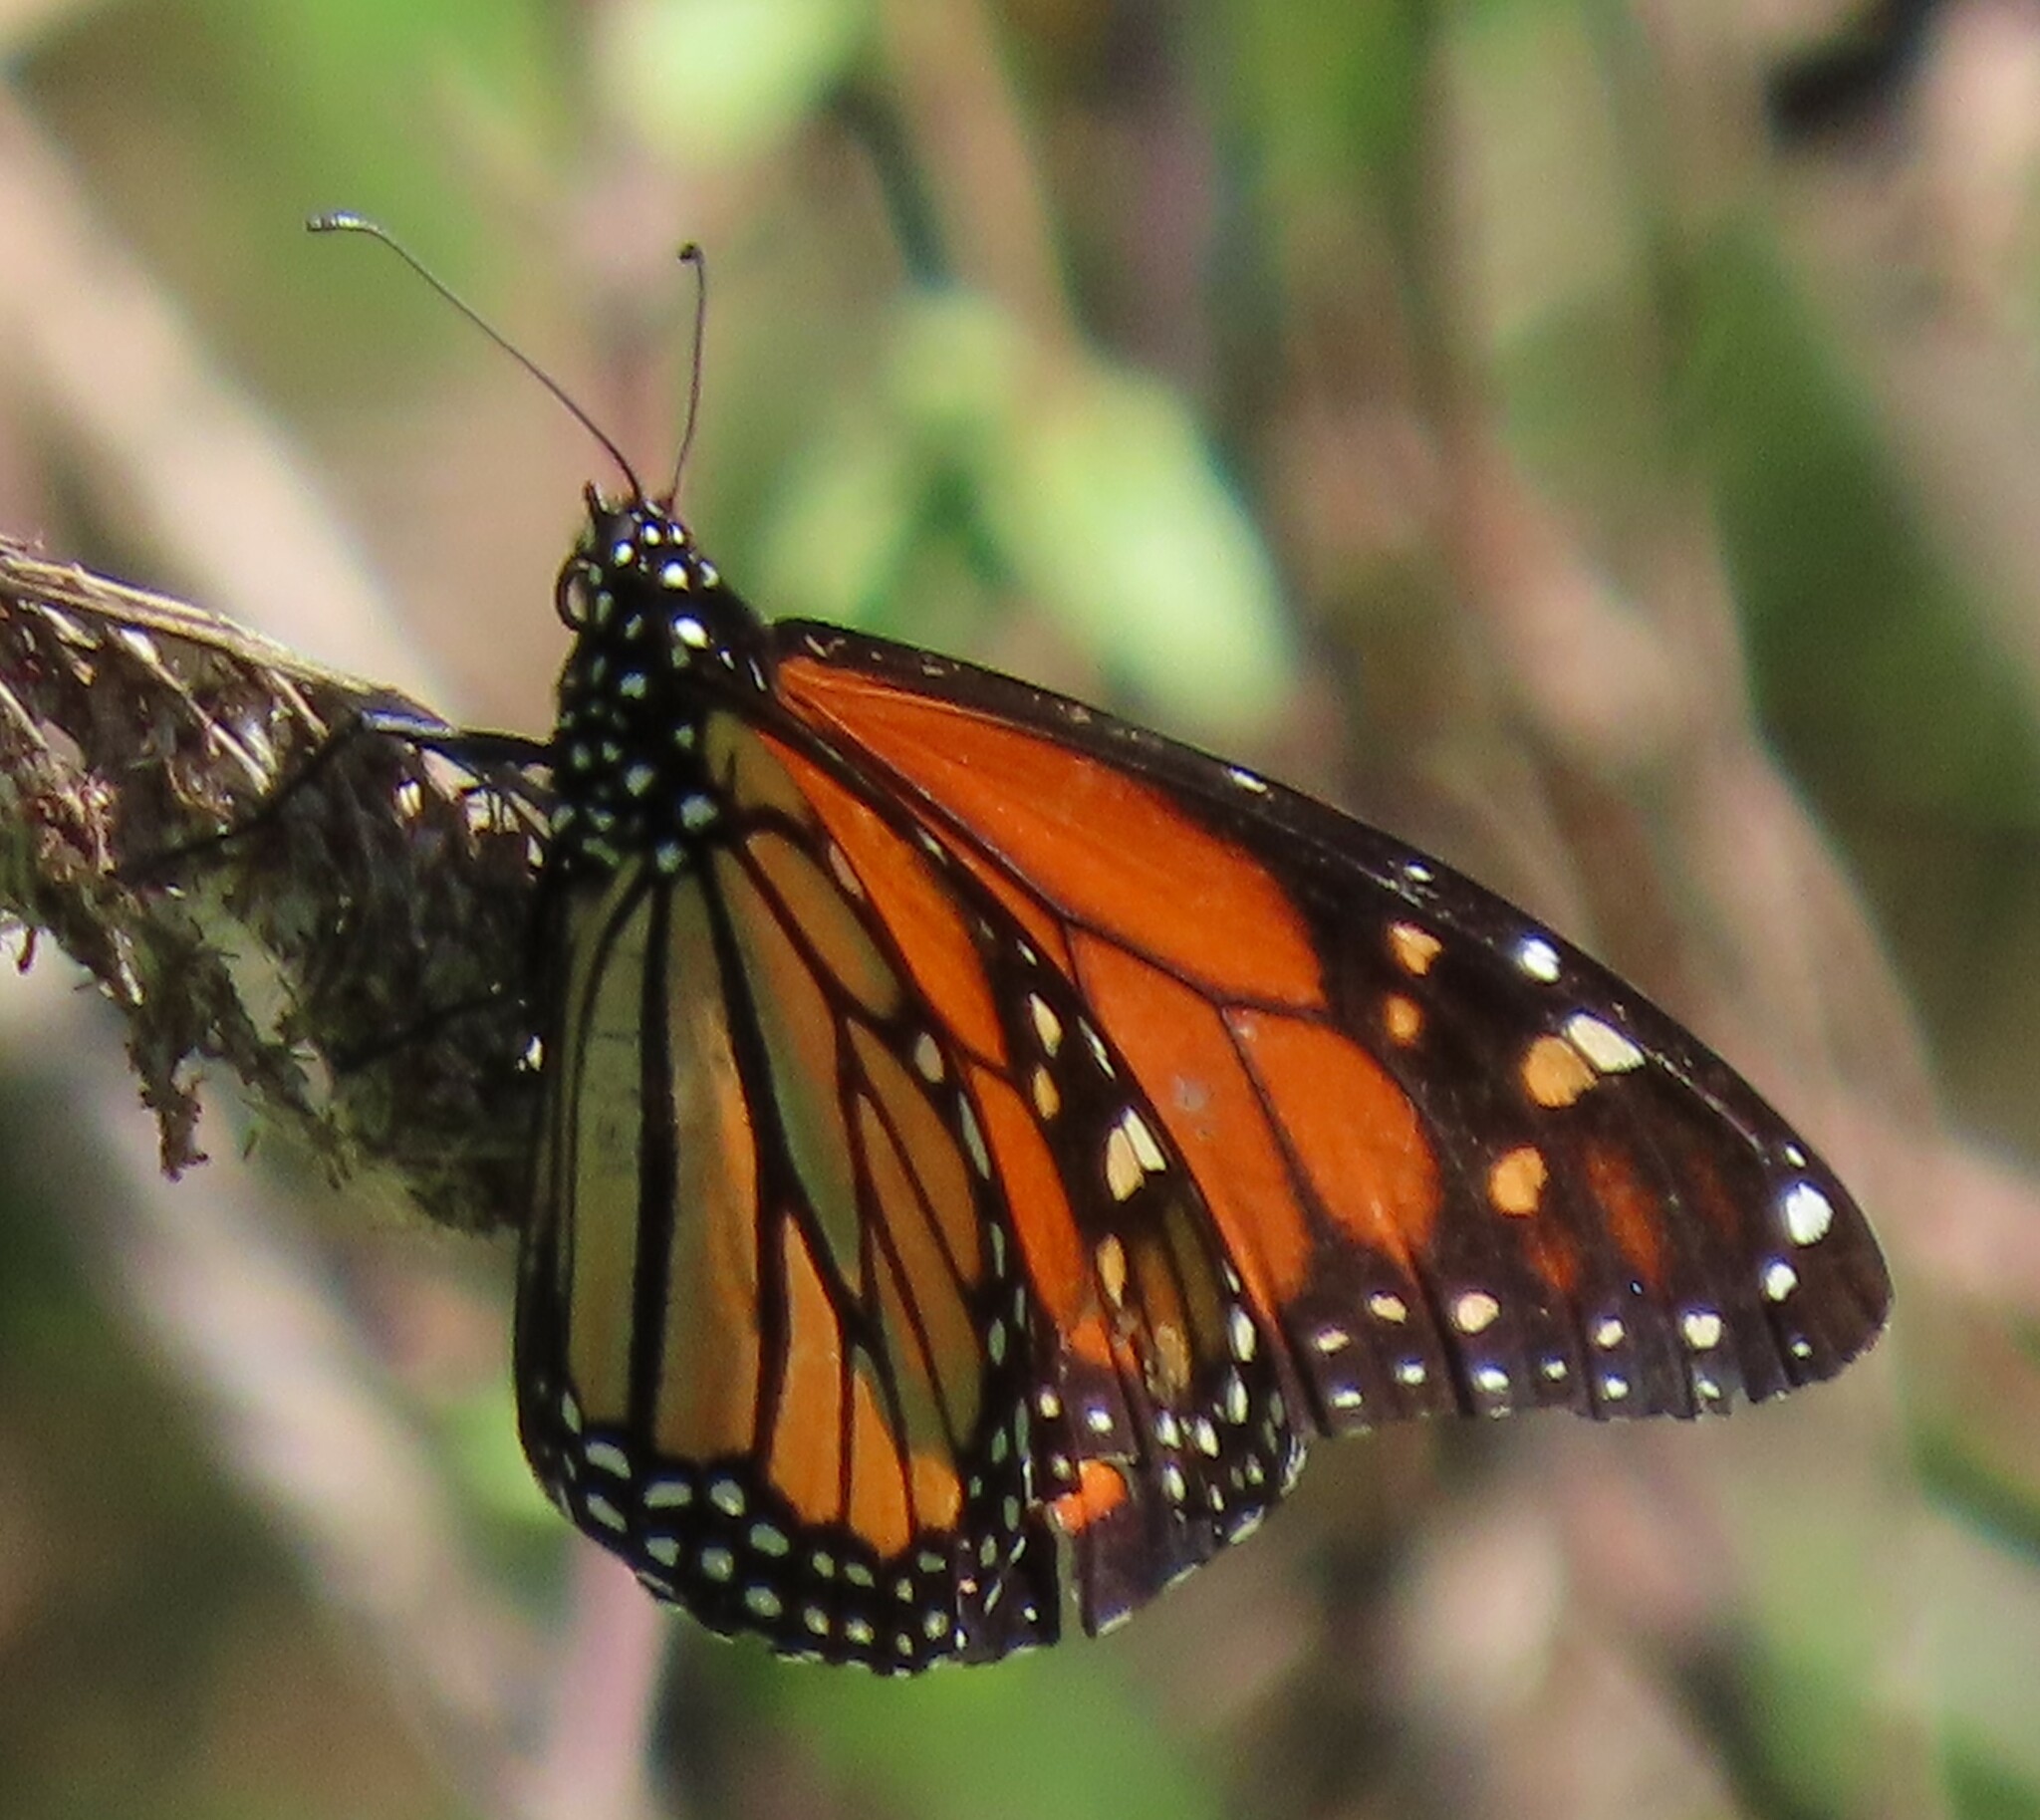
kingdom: Animalia
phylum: Arthropoda
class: Insecta
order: Lepidoptera
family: Nymphalidae
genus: Danaus
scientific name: Danaus plexippus
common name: Monarch
